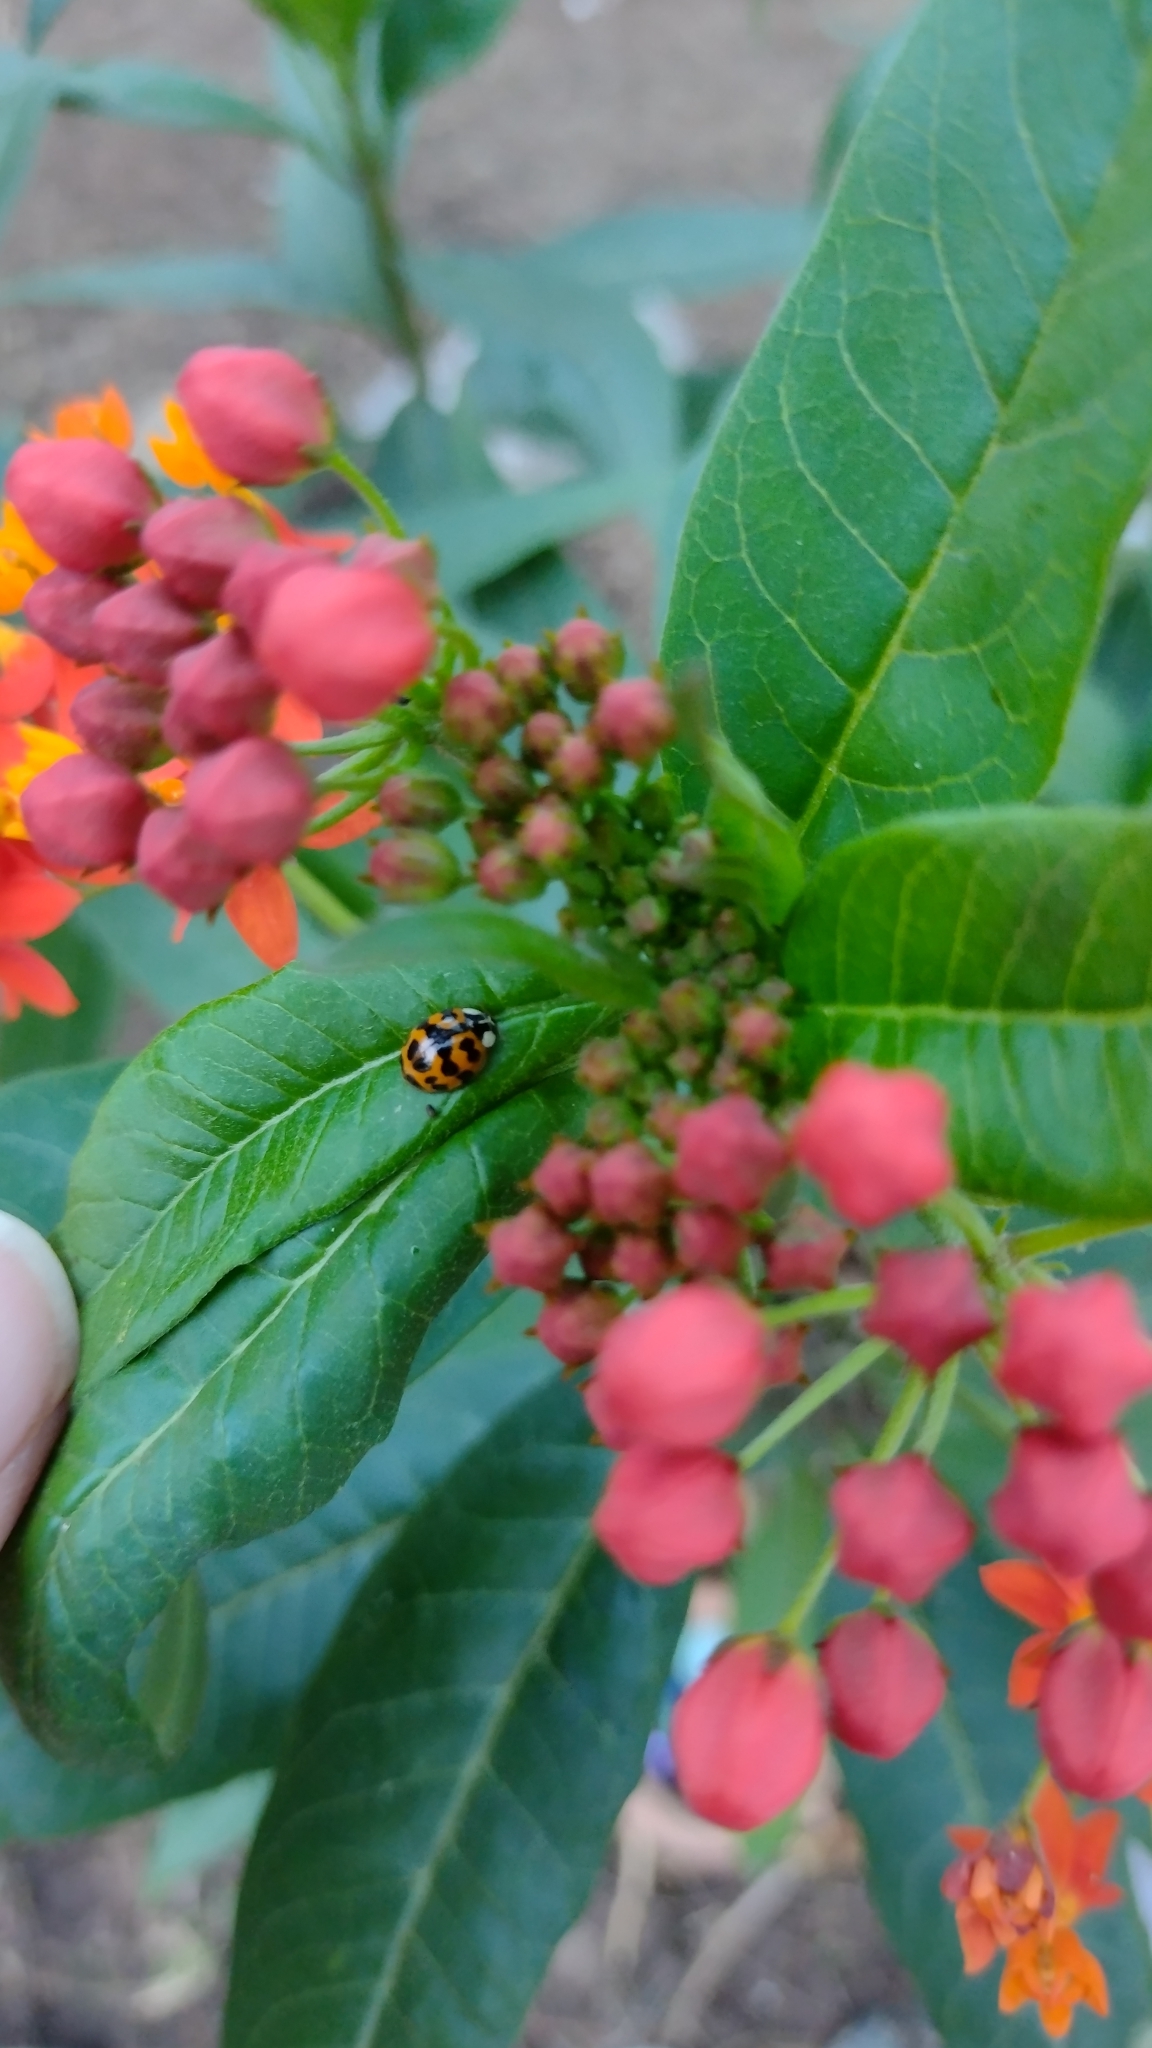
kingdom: Animalia
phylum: Arthropoda
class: Insecta
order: Coleoptera
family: Coccinellidae
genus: Harmonia
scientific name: Harmonia axyridis
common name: Harlequin ladybird
